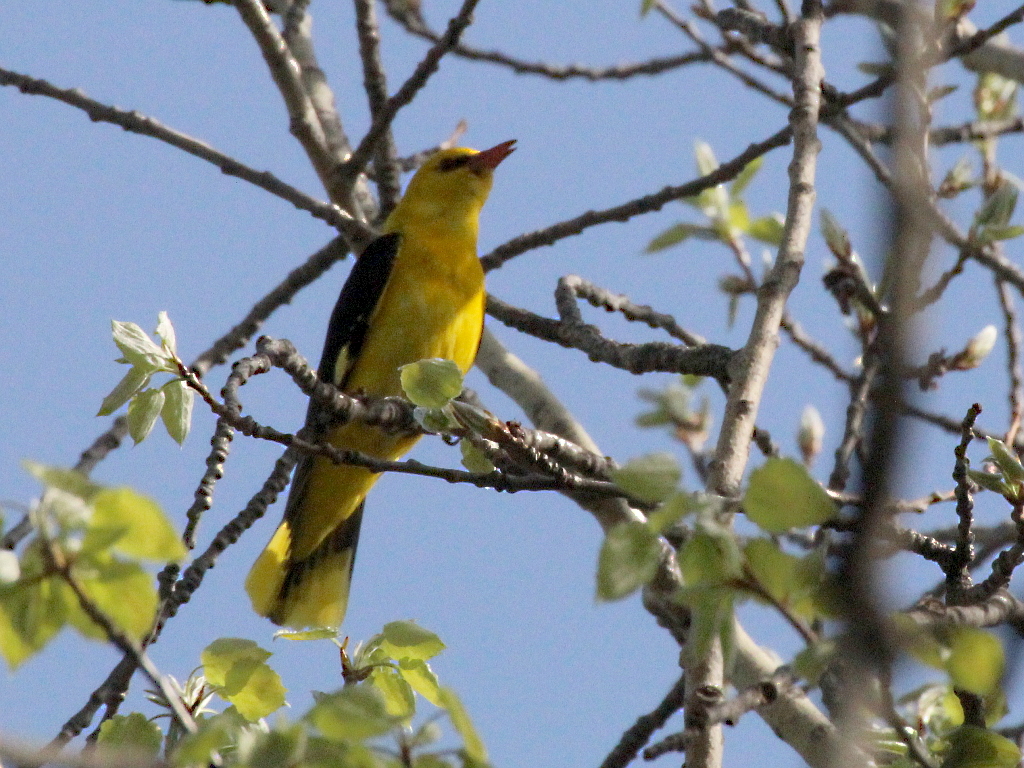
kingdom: Animalia
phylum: Chordata
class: Aves
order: Passeriformes
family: Oriolidae
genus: Oriolus
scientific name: Oriolus oriolus
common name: Eurasian golden oriole
